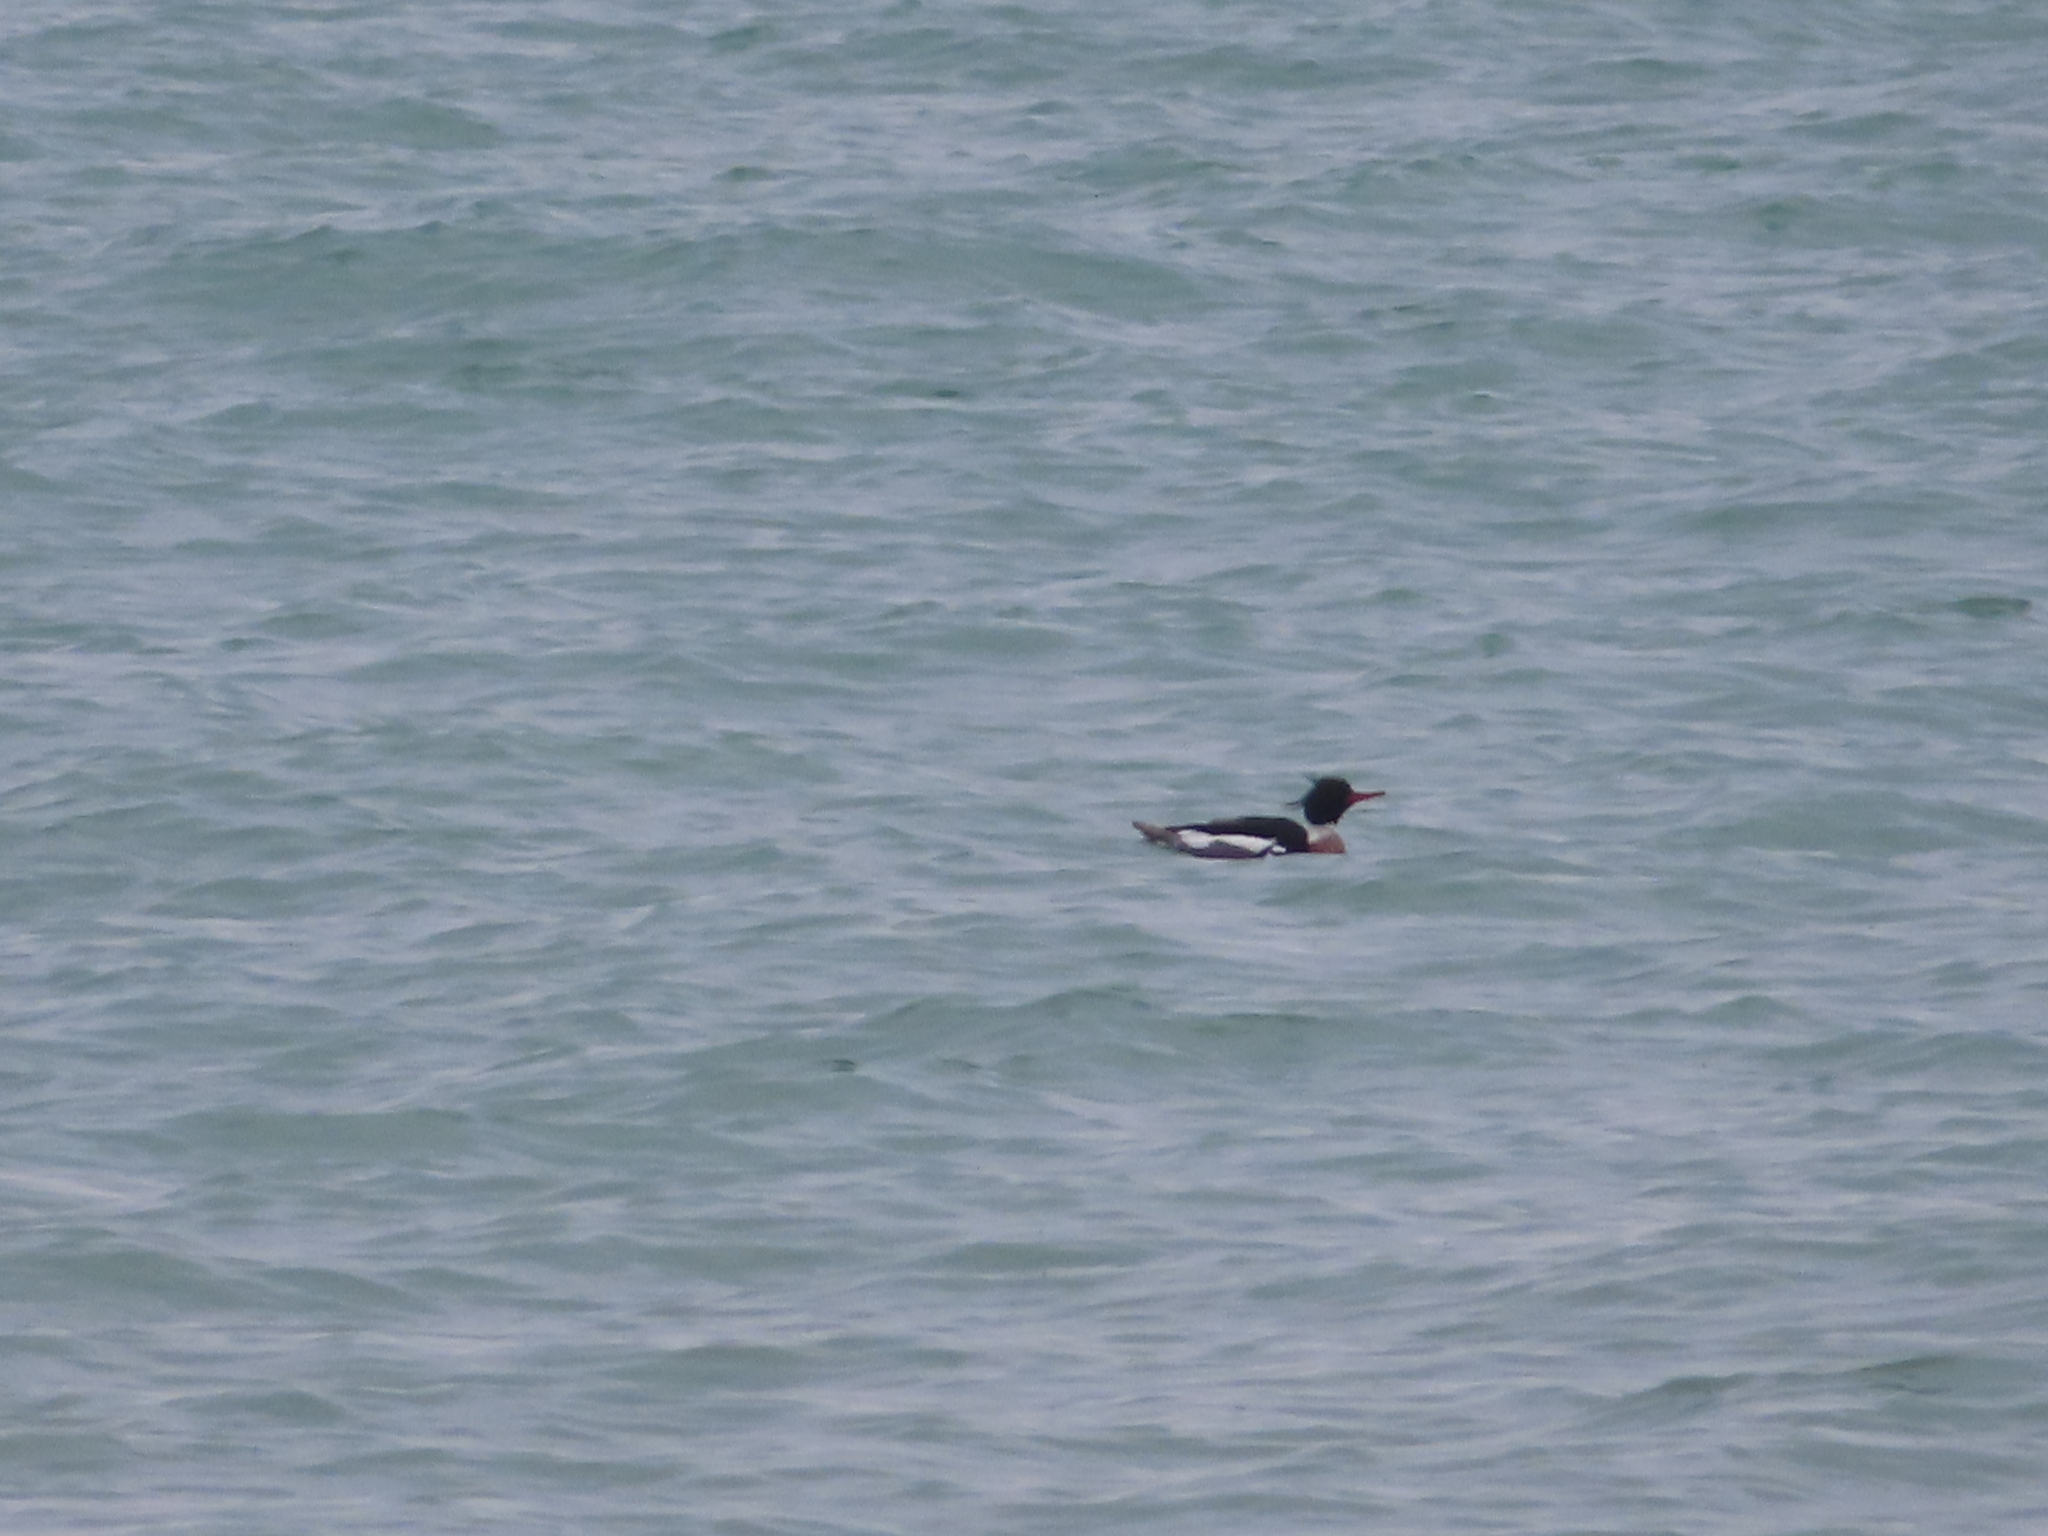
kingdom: Animalia
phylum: Chordata
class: Aves
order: Anseriformes
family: Anatidae
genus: Mergus
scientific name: Mergus serrator
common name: Red-breasted merganser
